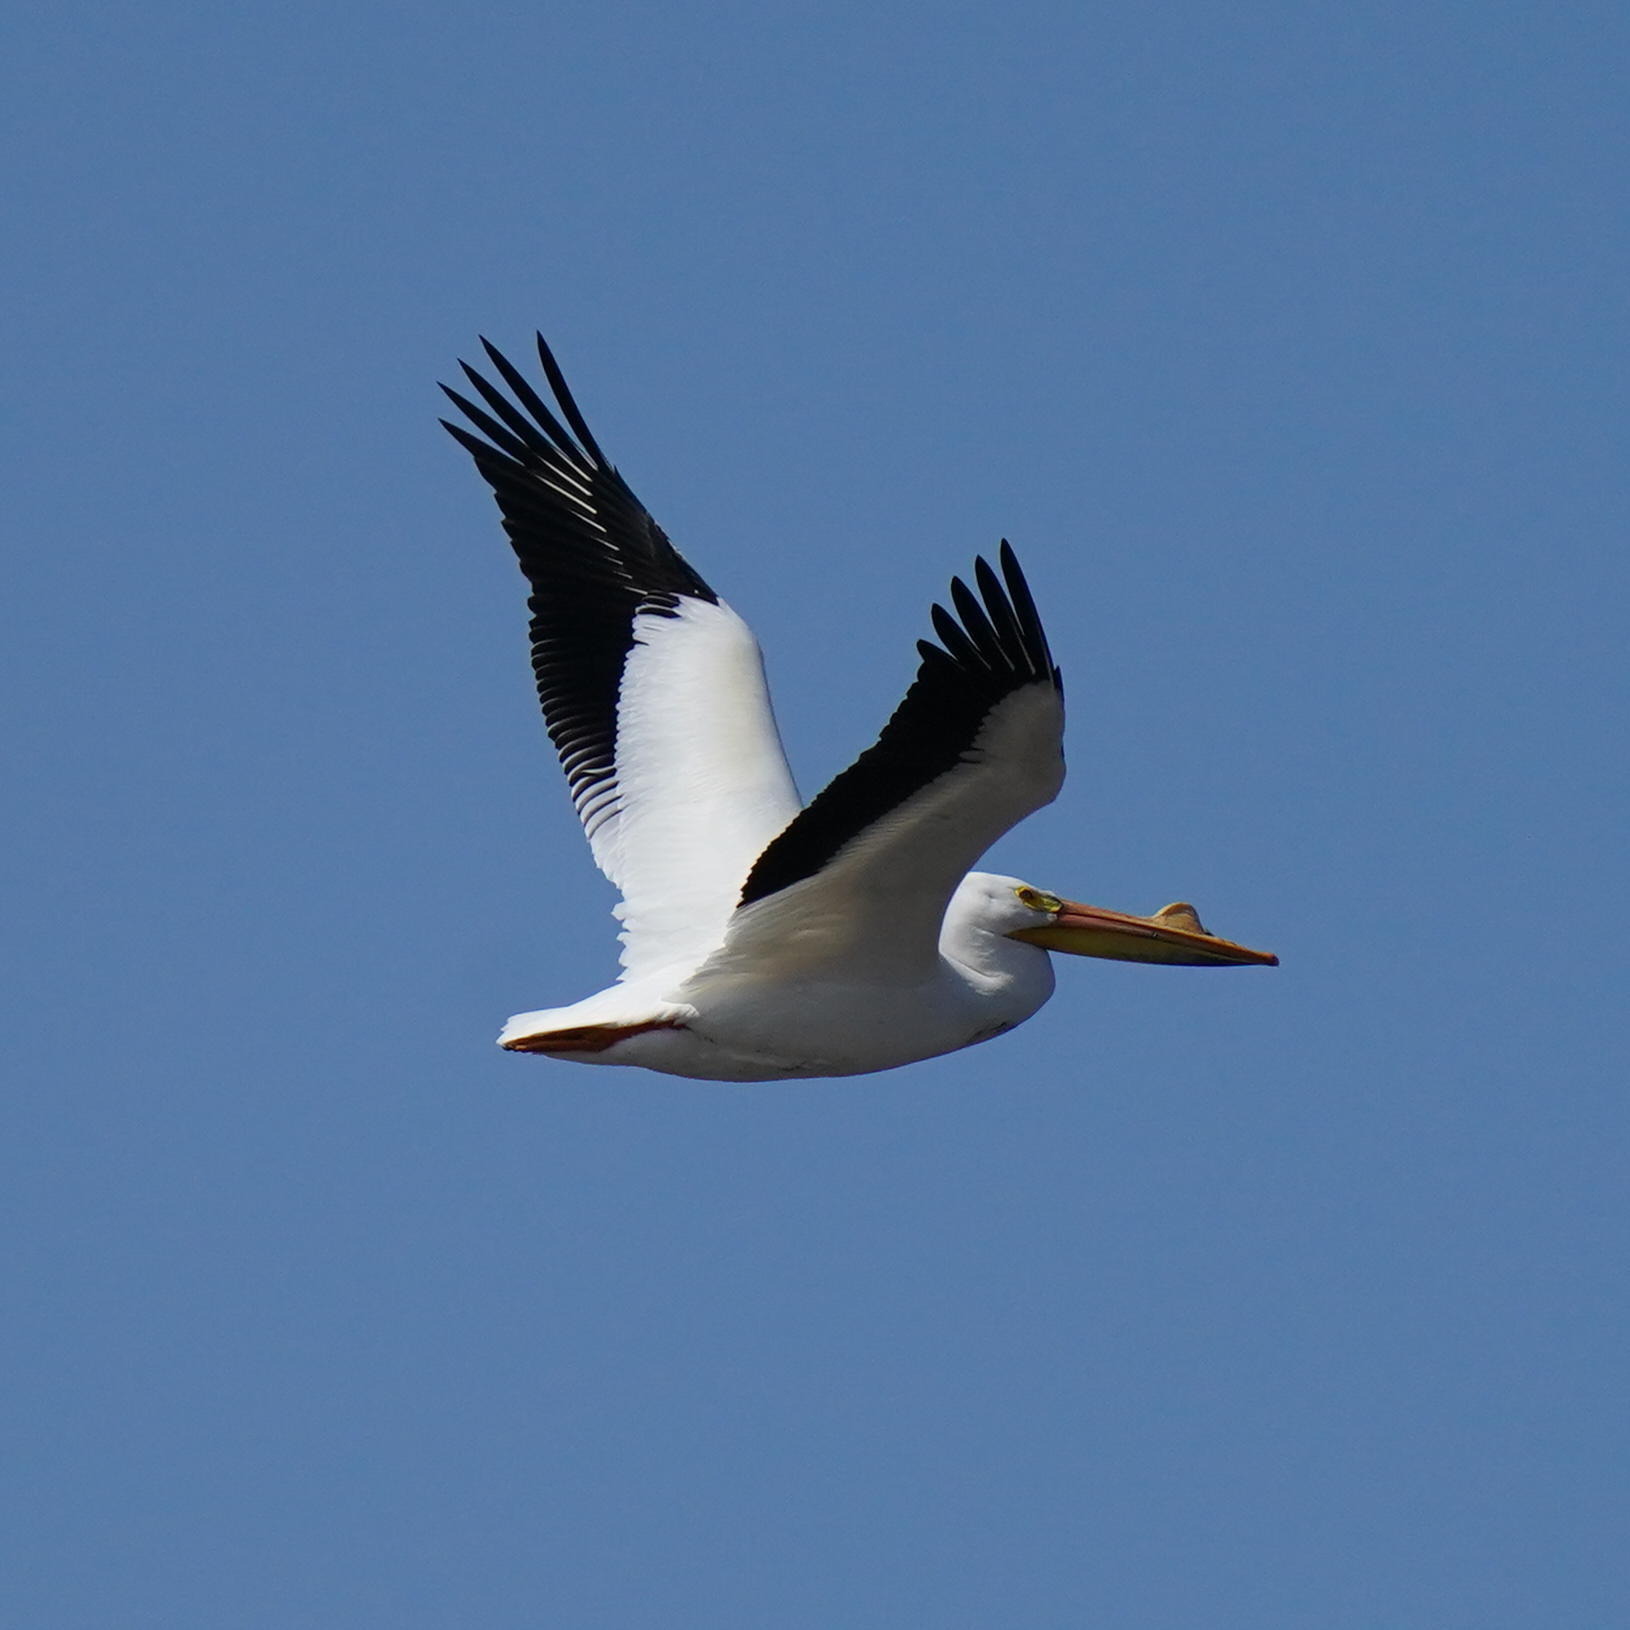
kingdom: Animalia
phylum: Chordata
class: Aves
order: Pelecaniformes
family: Pelecanidae
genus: Pelecanus
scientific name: Pelecanus erythrorhynchos
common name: American white pelican
